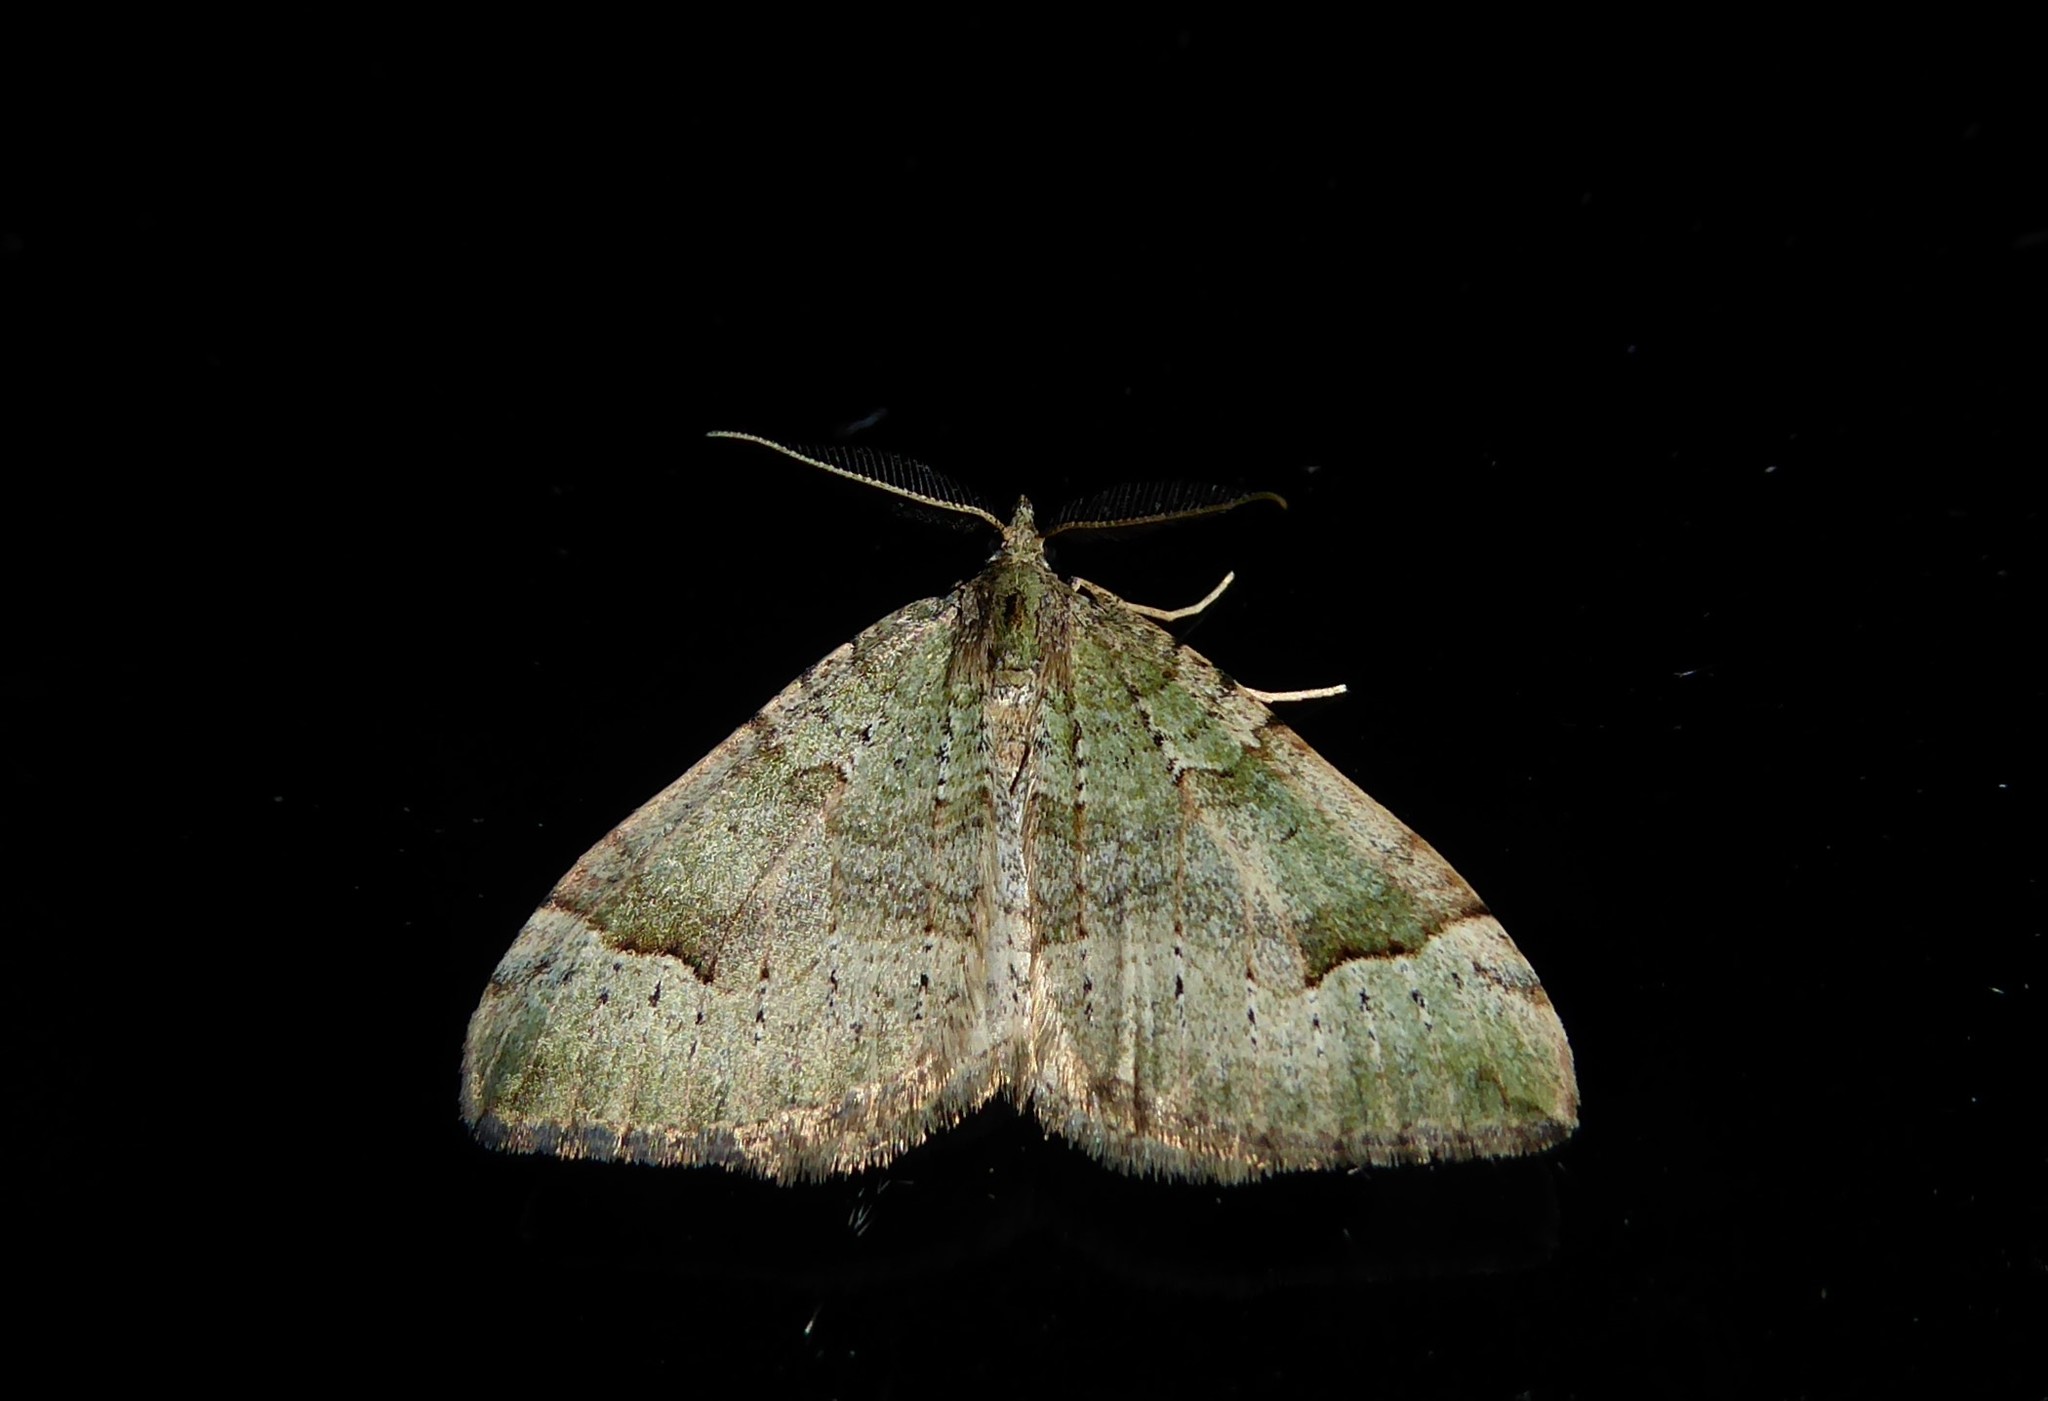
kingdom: Animalia
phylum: Arthropoda
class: Insecta
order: Lepidoptera
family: Geometridae
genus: Epyaxa
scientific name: Epyaxa rosearia
